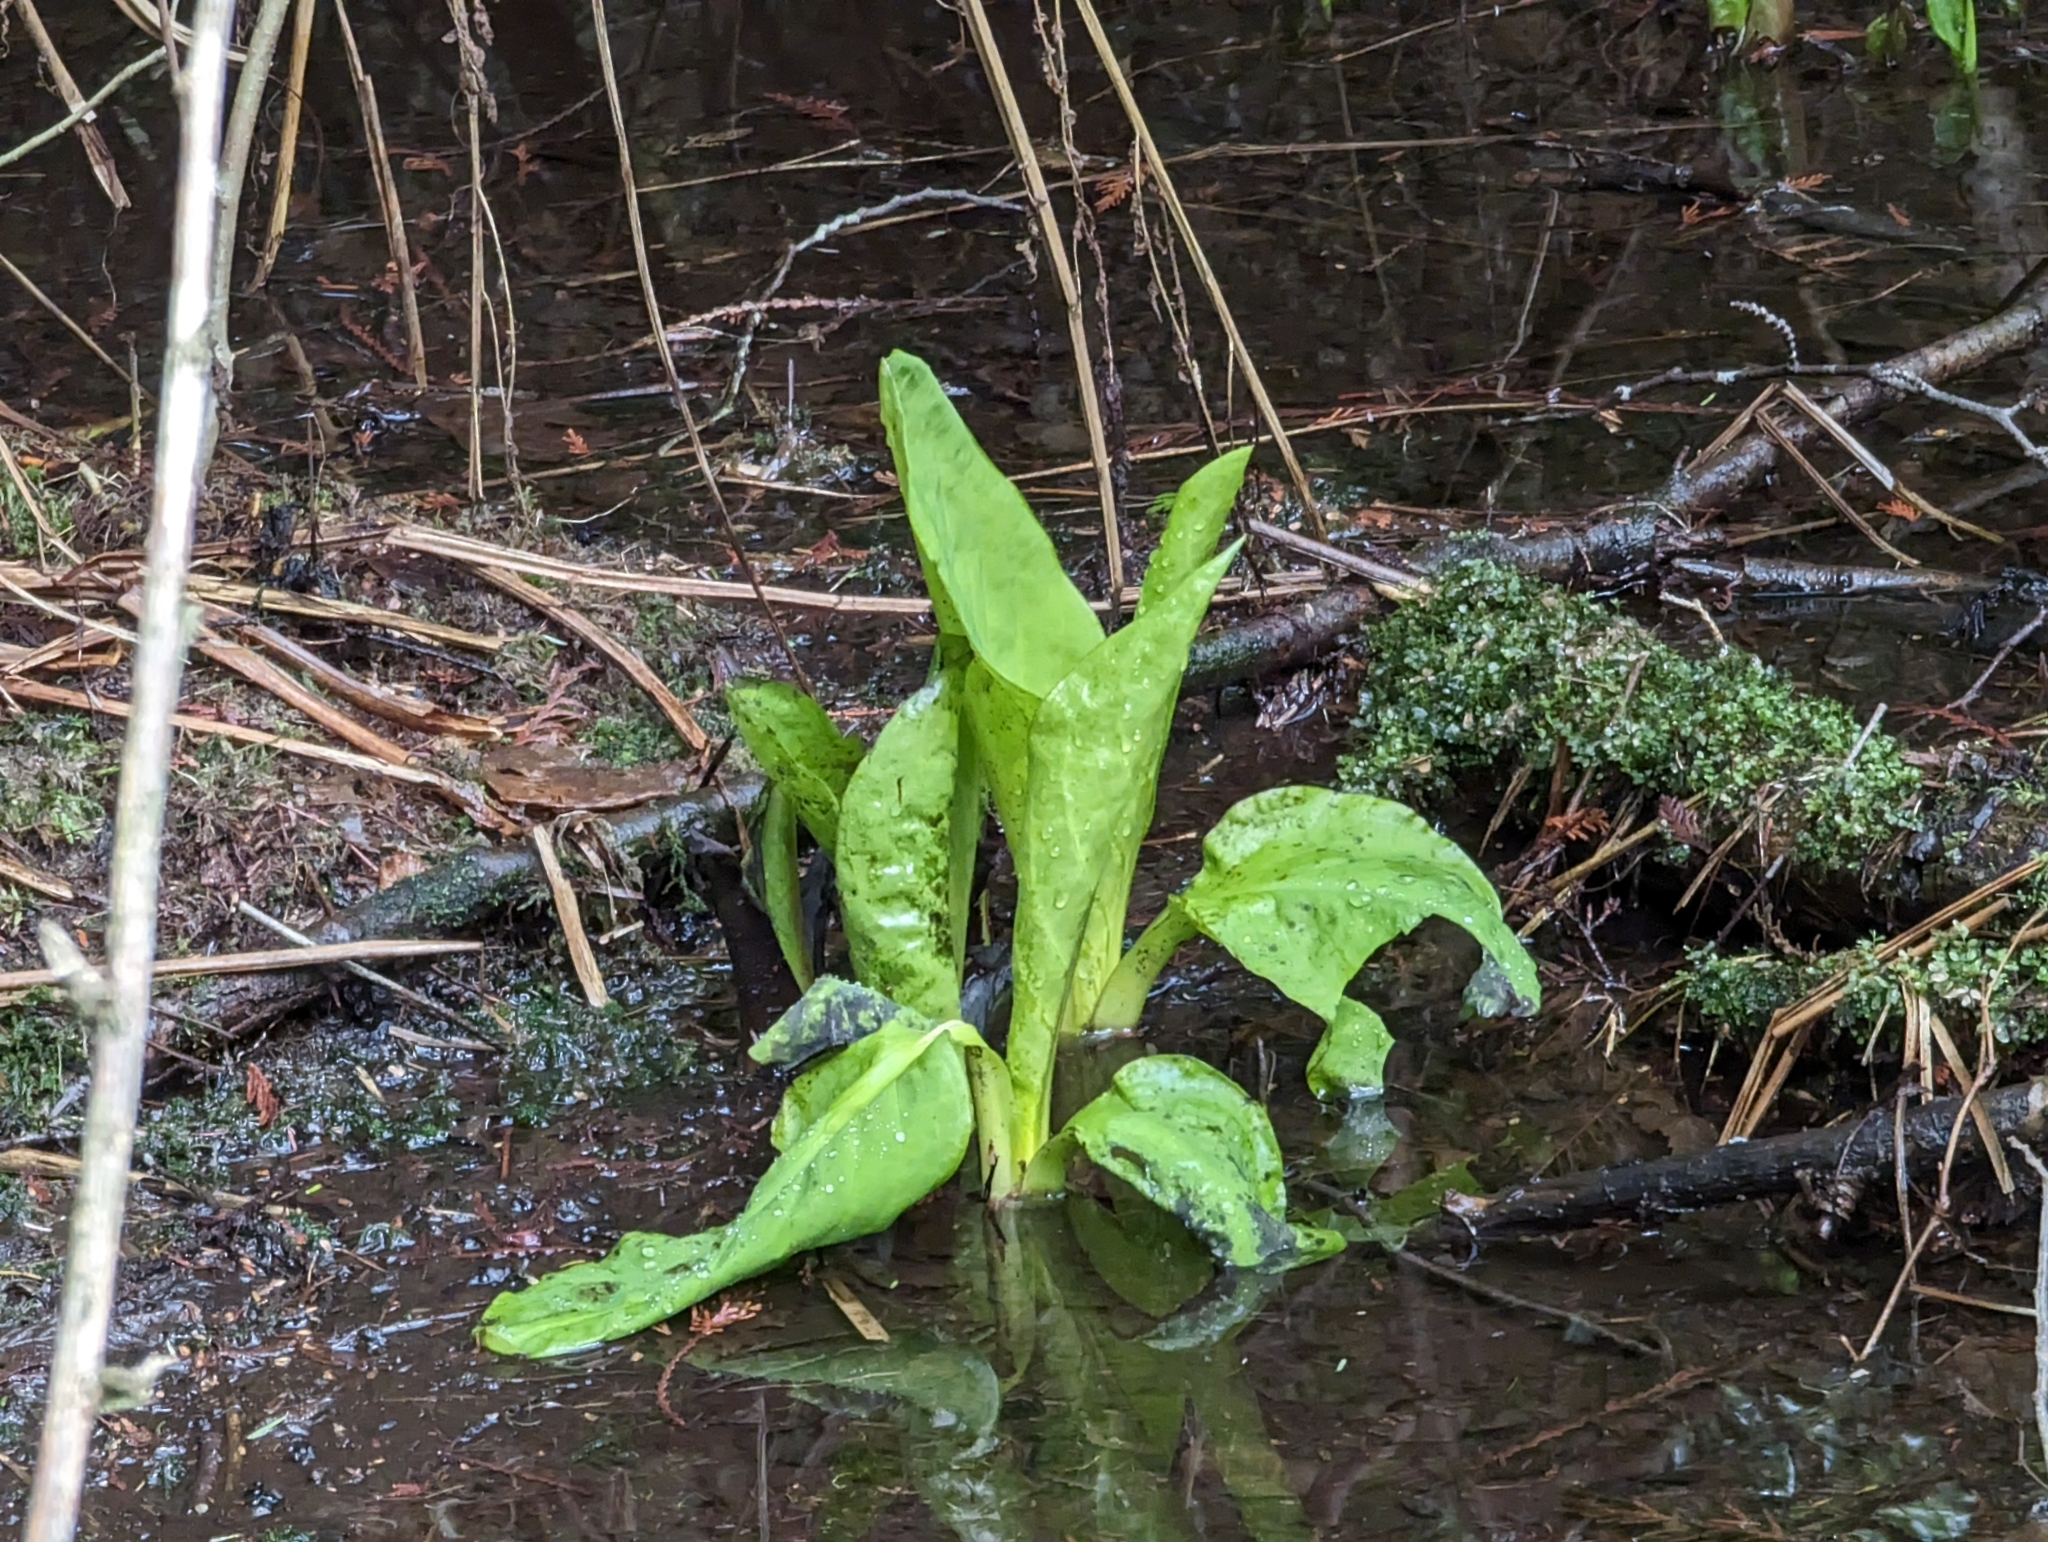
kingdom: Plantae
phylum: Tracheophyta
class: Liliopsida
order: Alismatales
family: Araceae
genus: Lysichiton
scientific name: Lysichiton americanus
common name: American skunk cabbage
